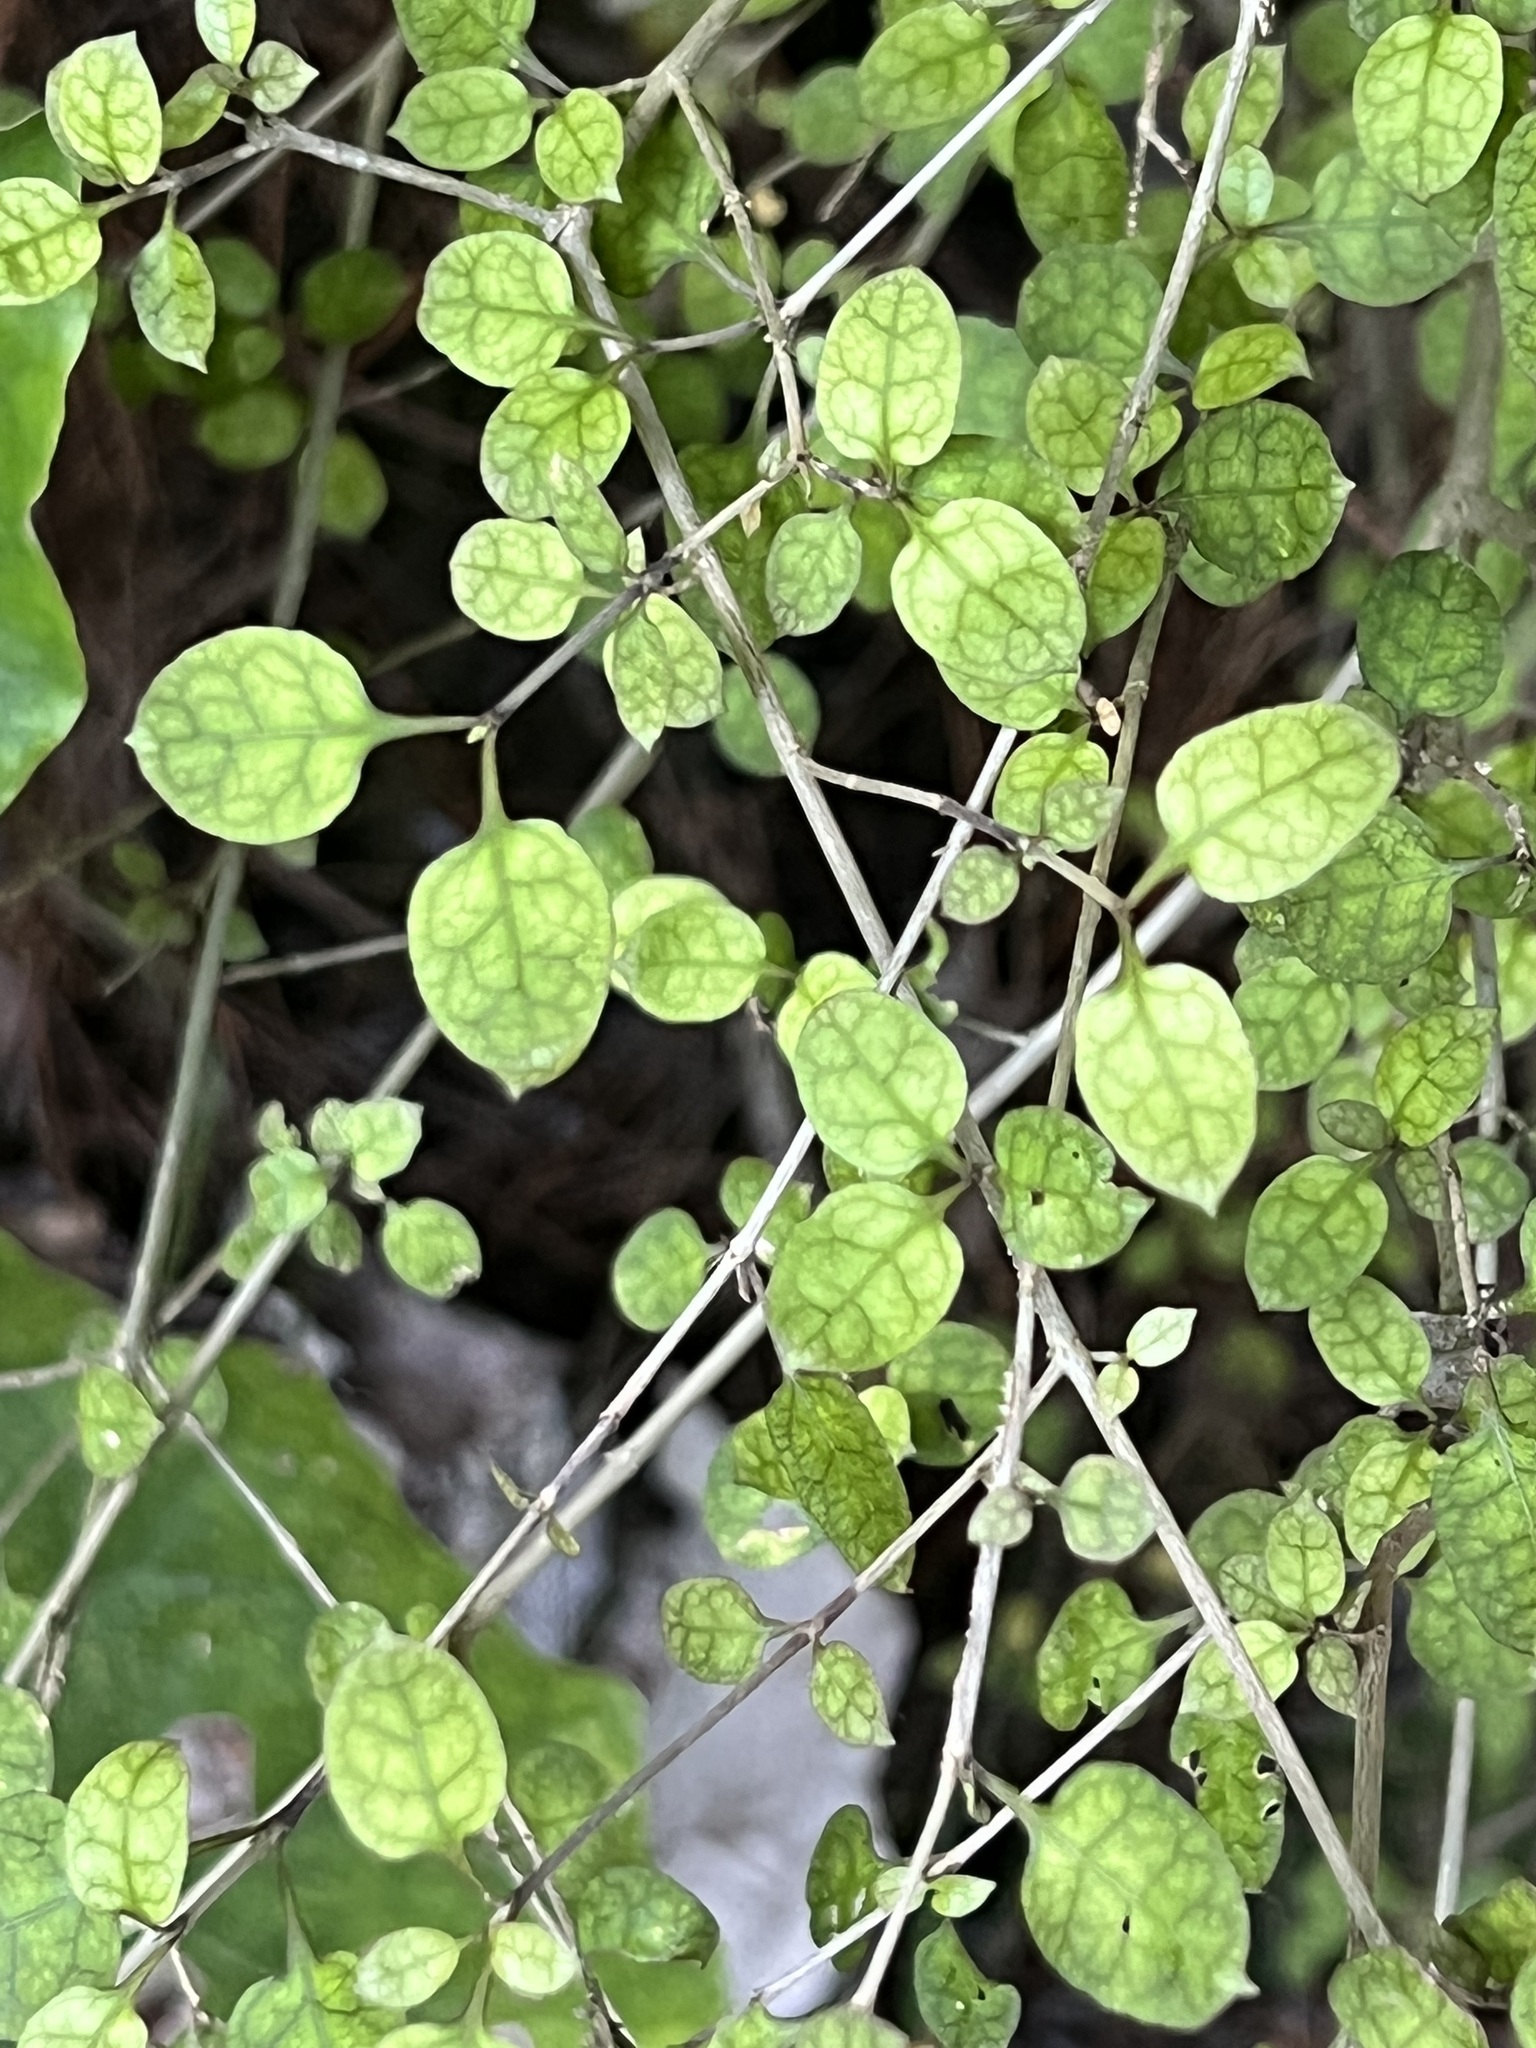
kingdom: Plantae
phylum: Tracheophyta
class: Magnoliopsida
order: Gentianales
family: Rubiaceae
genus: Coprosma
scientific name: Coprosma areolata
